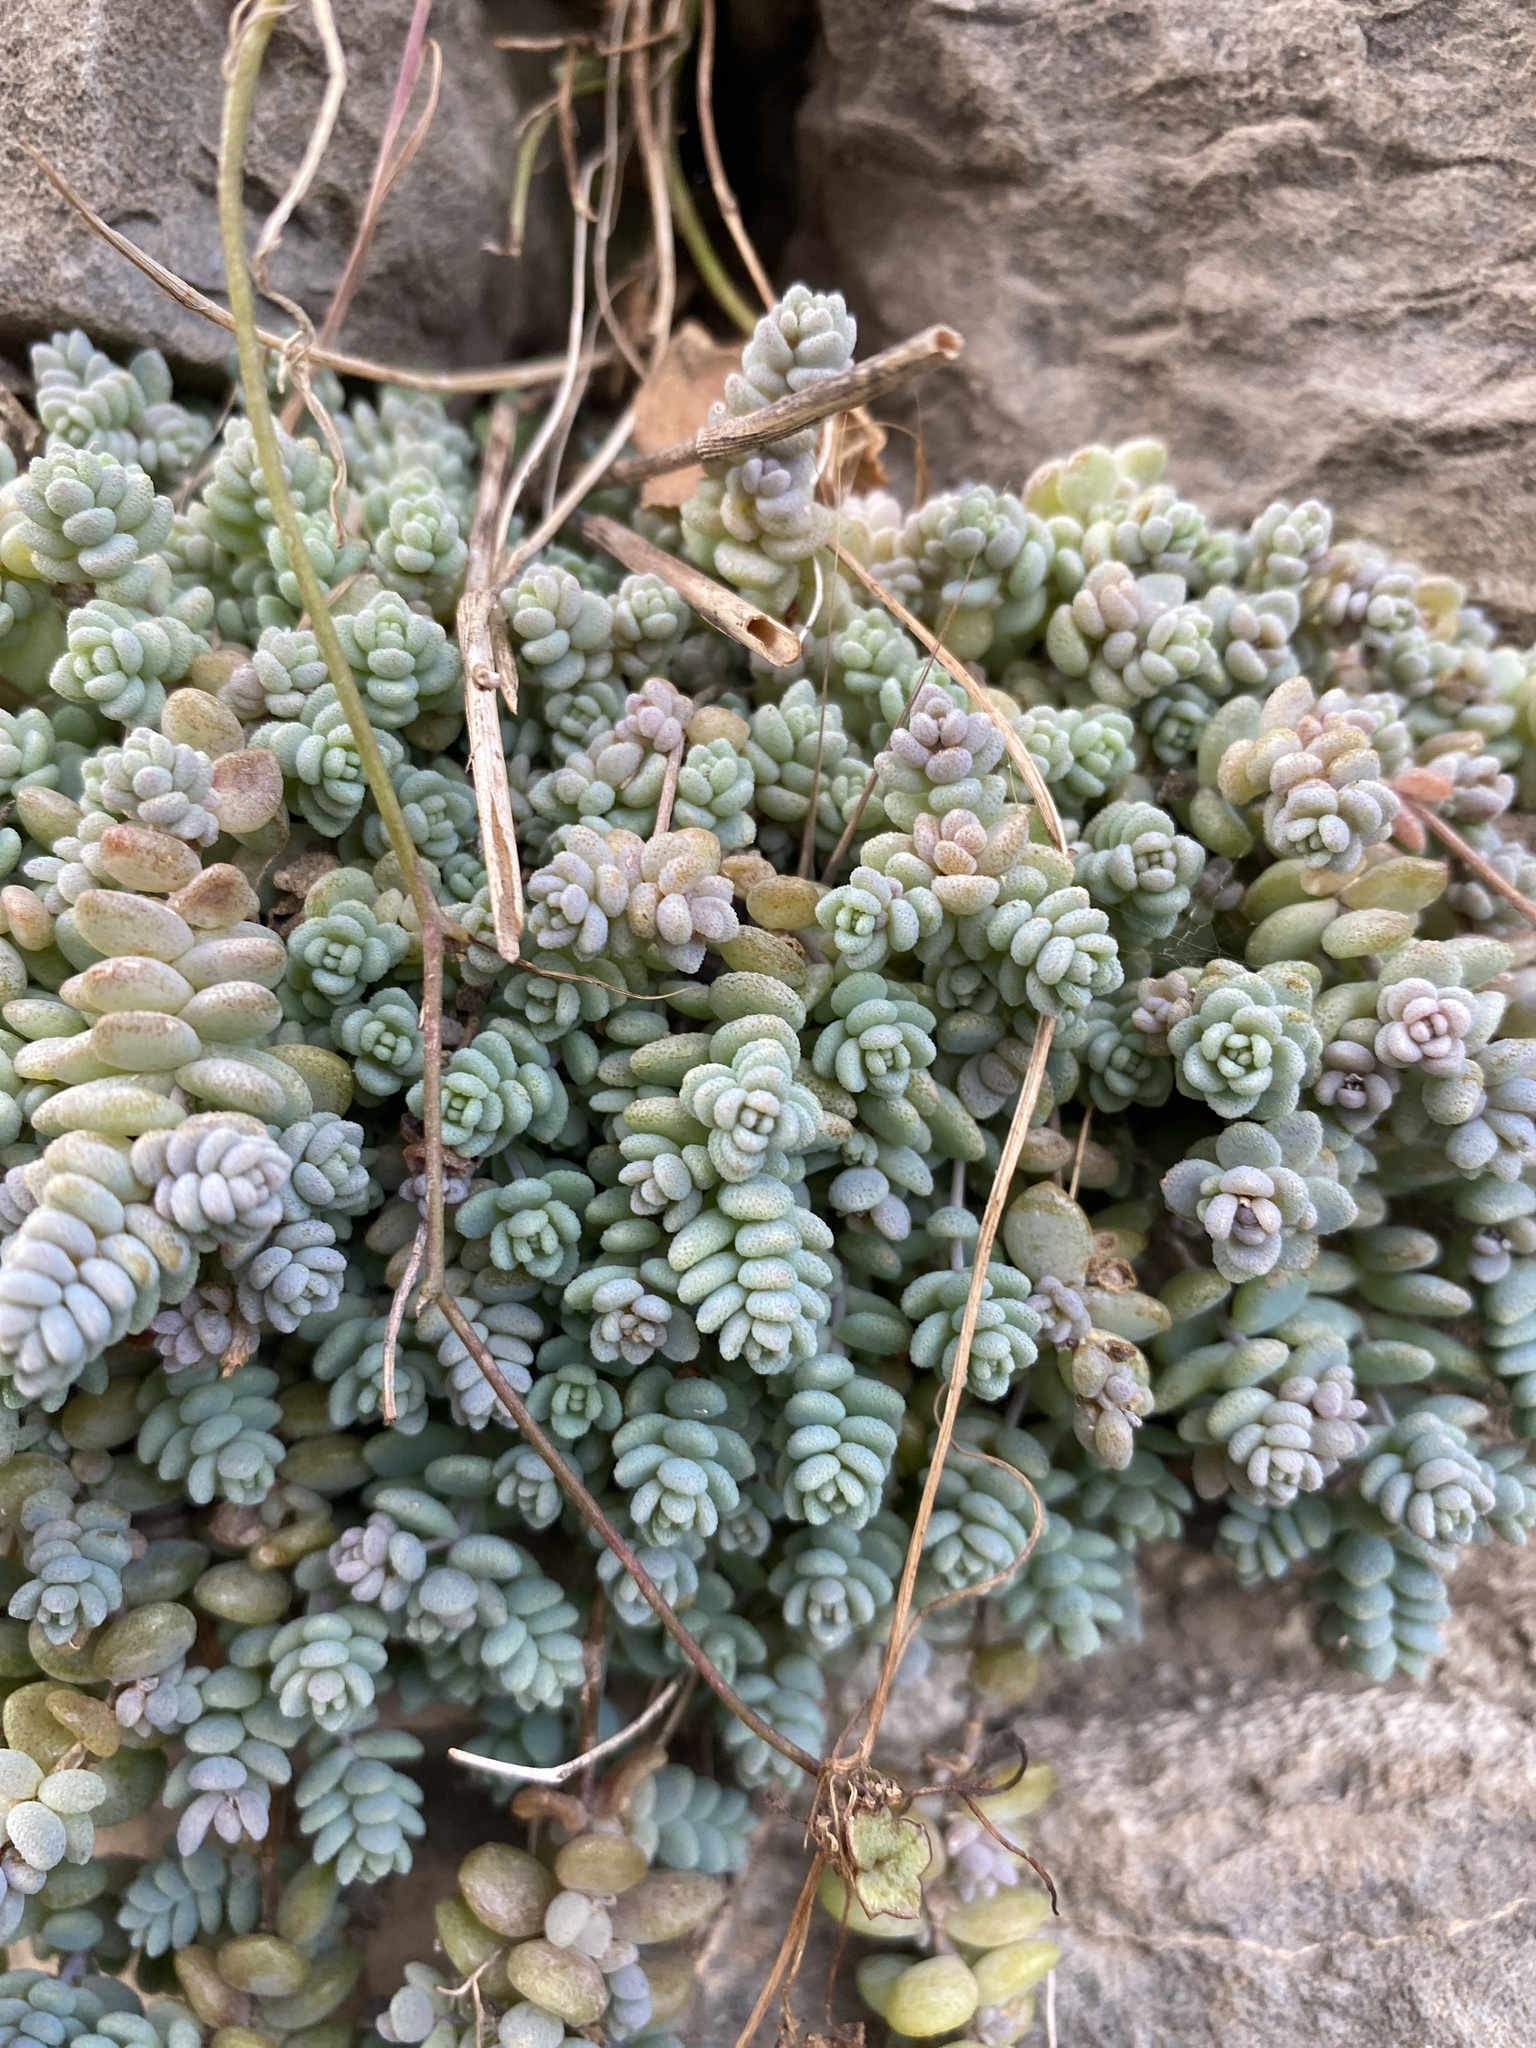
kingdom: Plantae
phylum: Tracheophyta
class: Magnoliopsida
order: Saxifragales
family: Crassulaceae
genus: Sedum
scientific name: Sedum dasyphyllum
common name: Thick-leaf stonecrop
